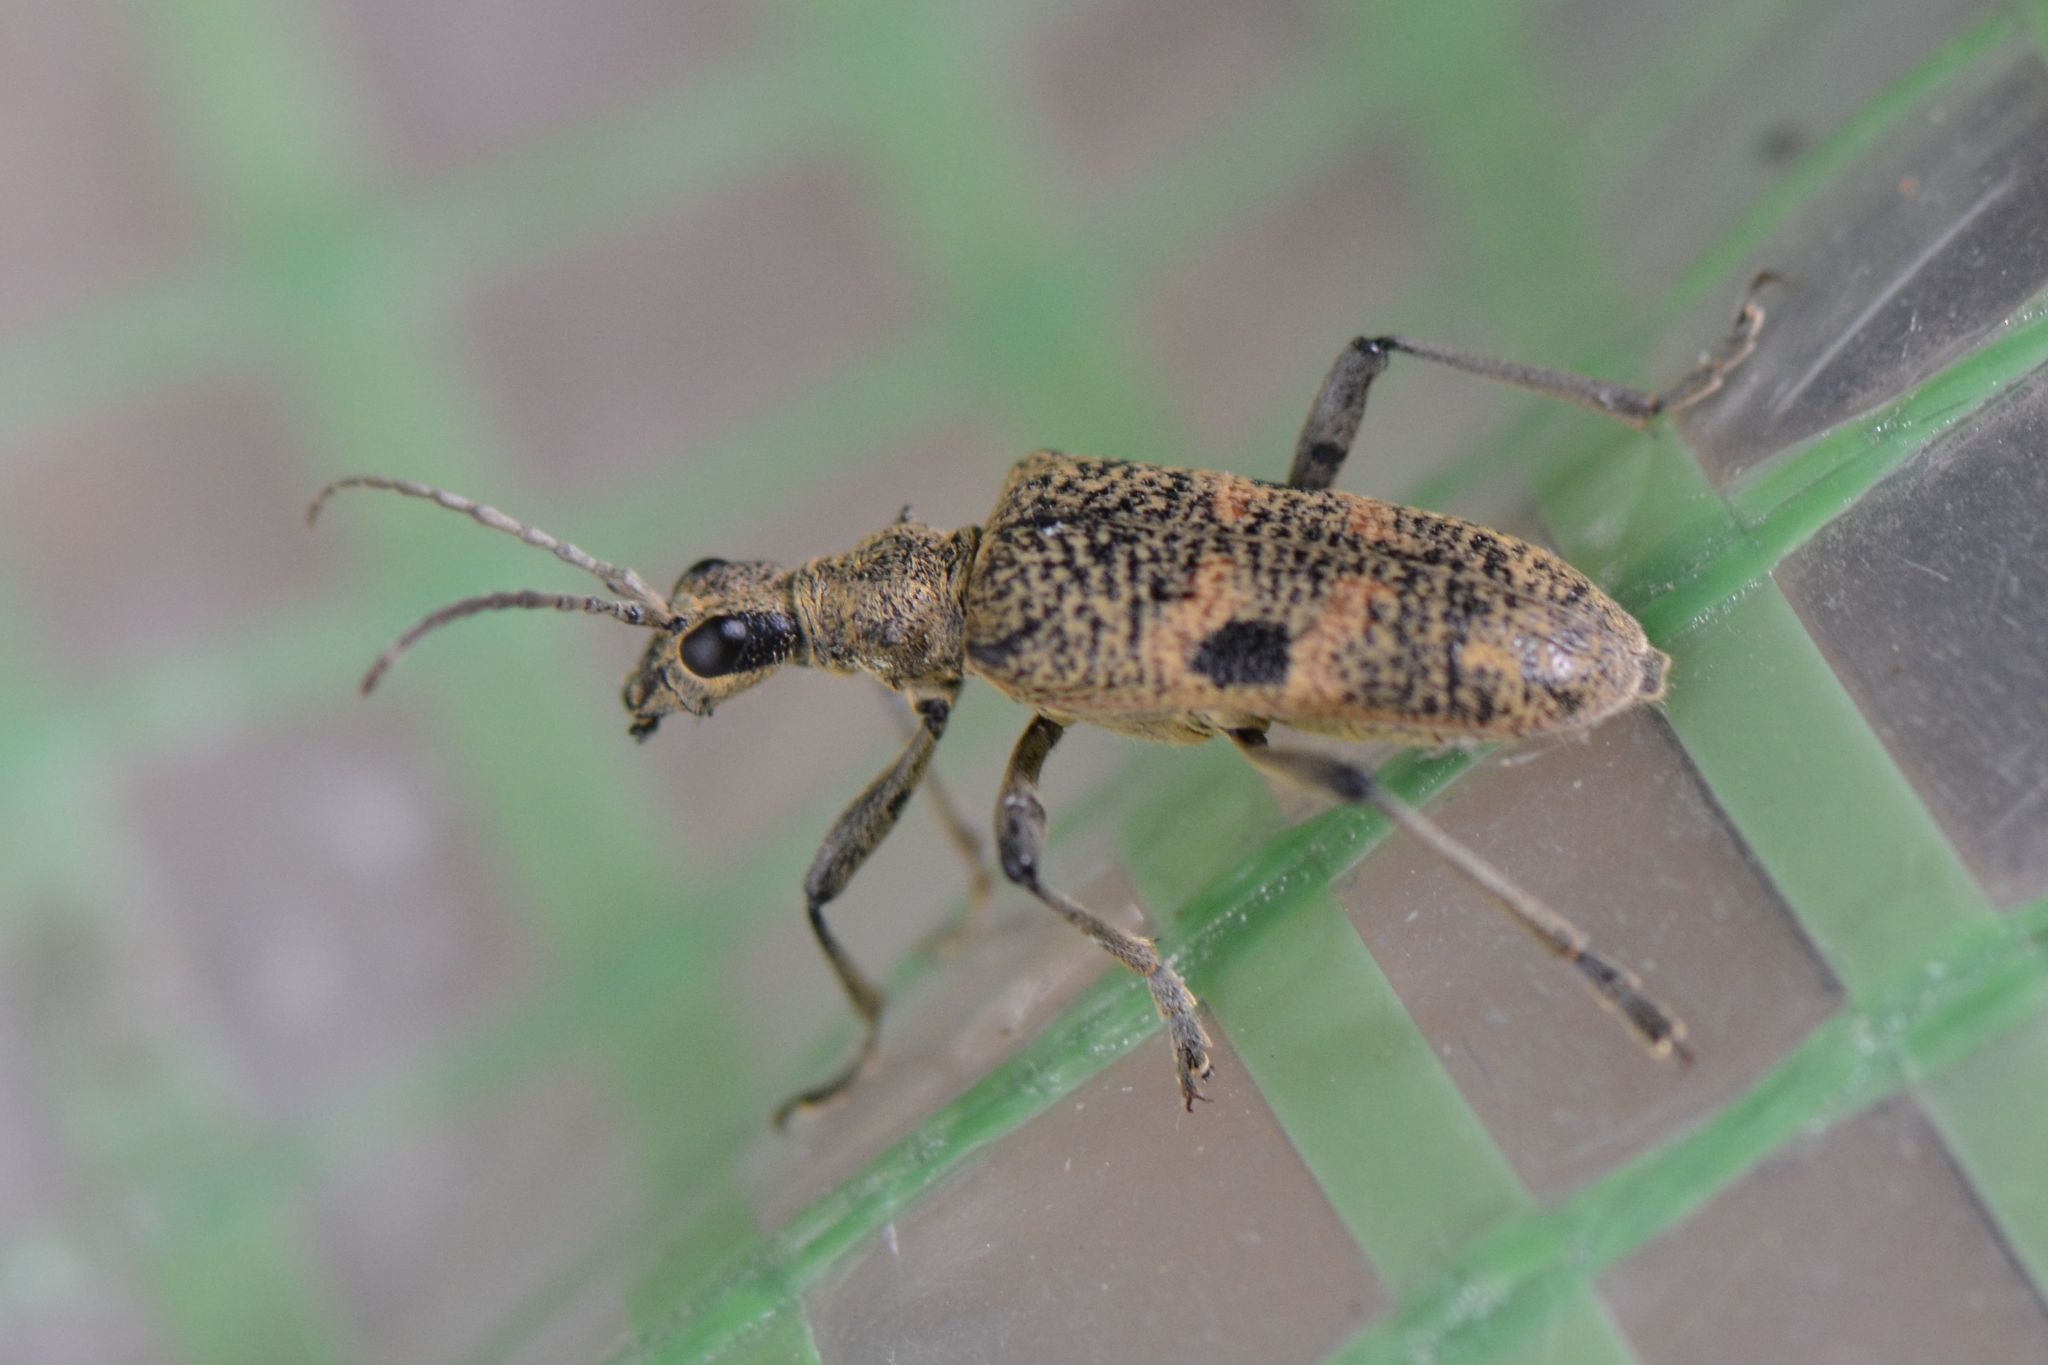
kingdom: Animalia
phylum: Arthropoda
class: Insecta
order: Coleoptera
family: Cerambycidae
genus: Rhagium
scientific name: Rhagium mordax
